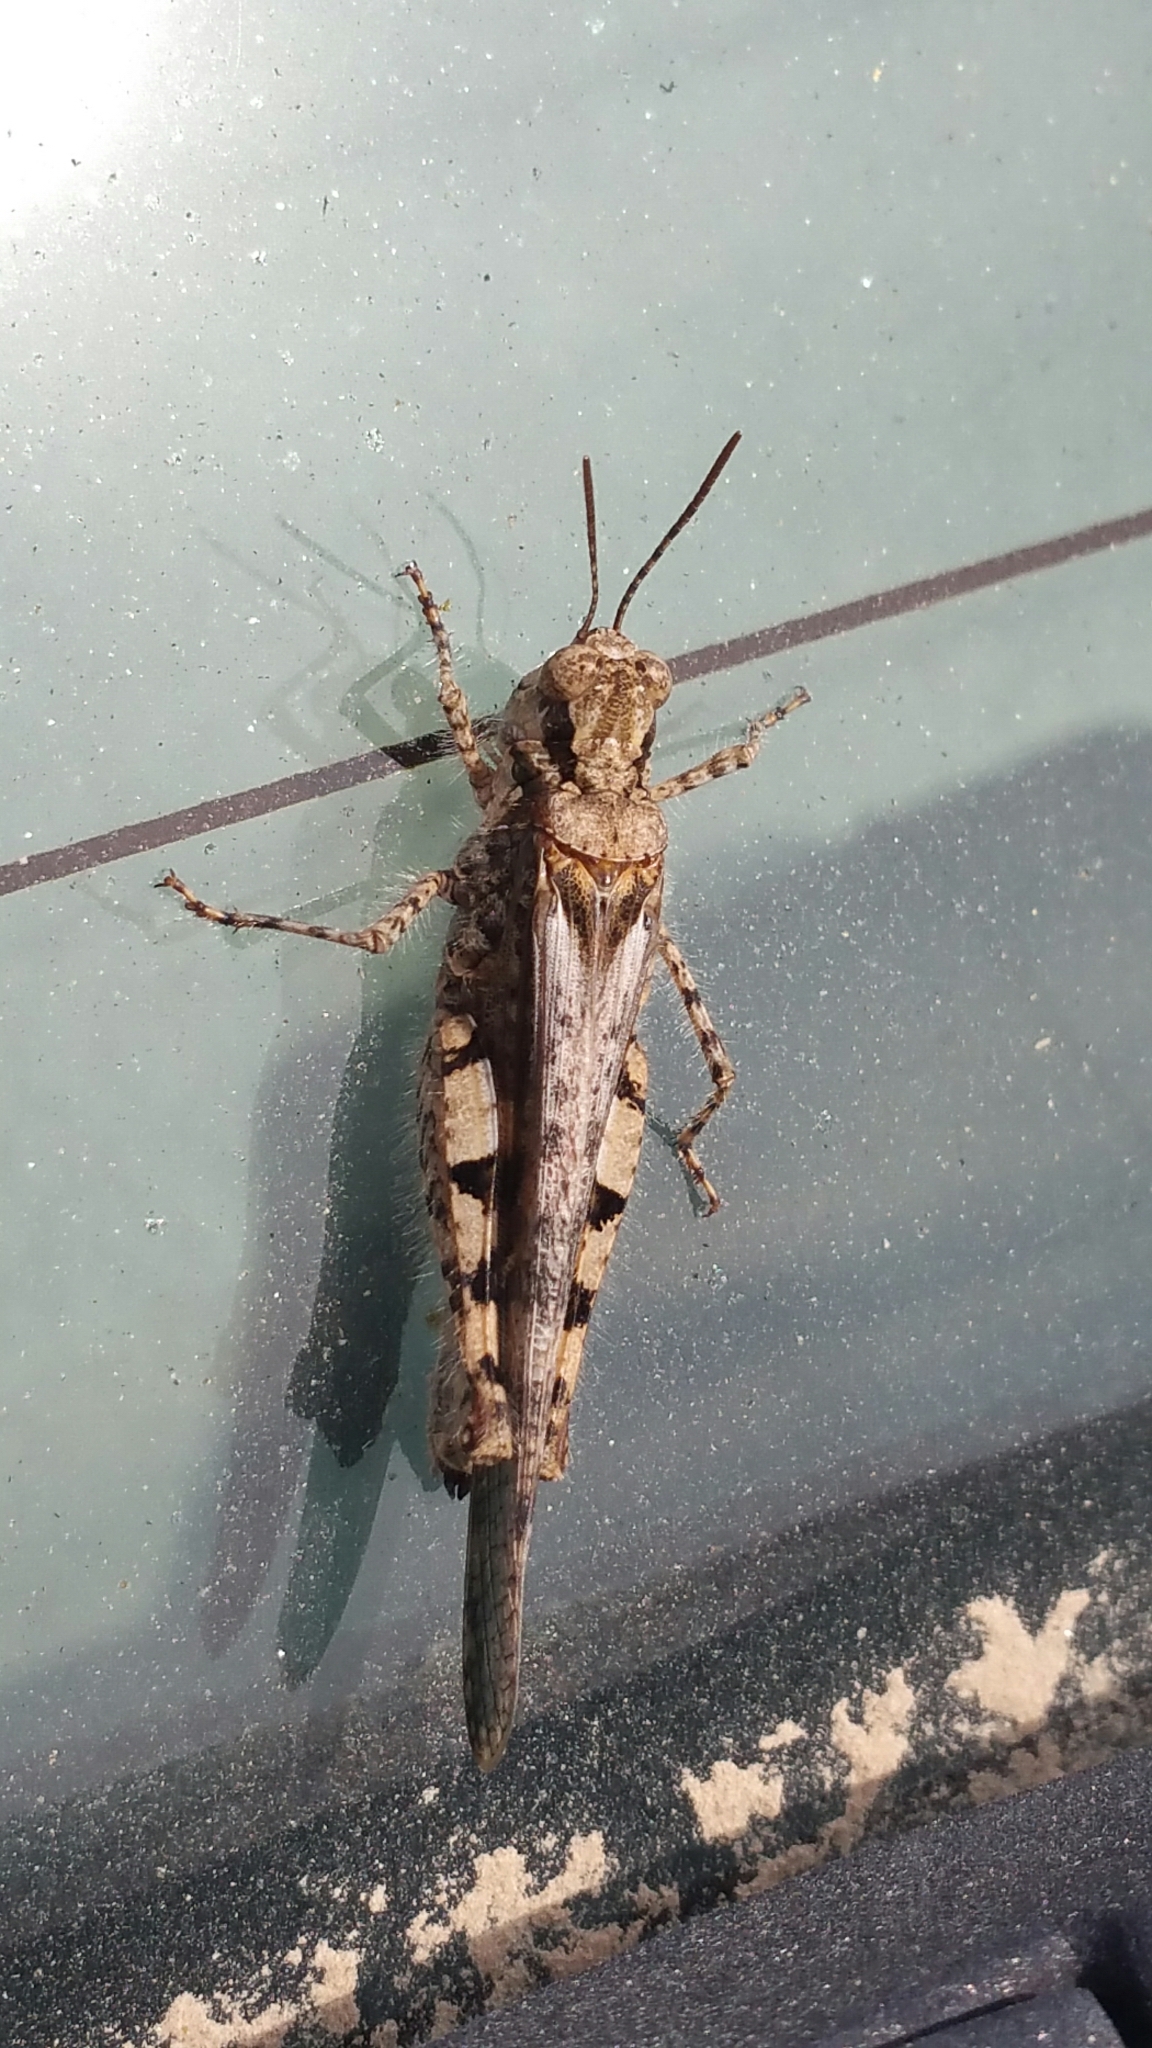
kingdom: Animalia
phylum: Arthropoda
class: Insecta
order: Orthoptera
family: Acrididae
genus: Acrotylus
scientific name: Acrotylus patruelis
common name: Slender burrowing grasshopper
